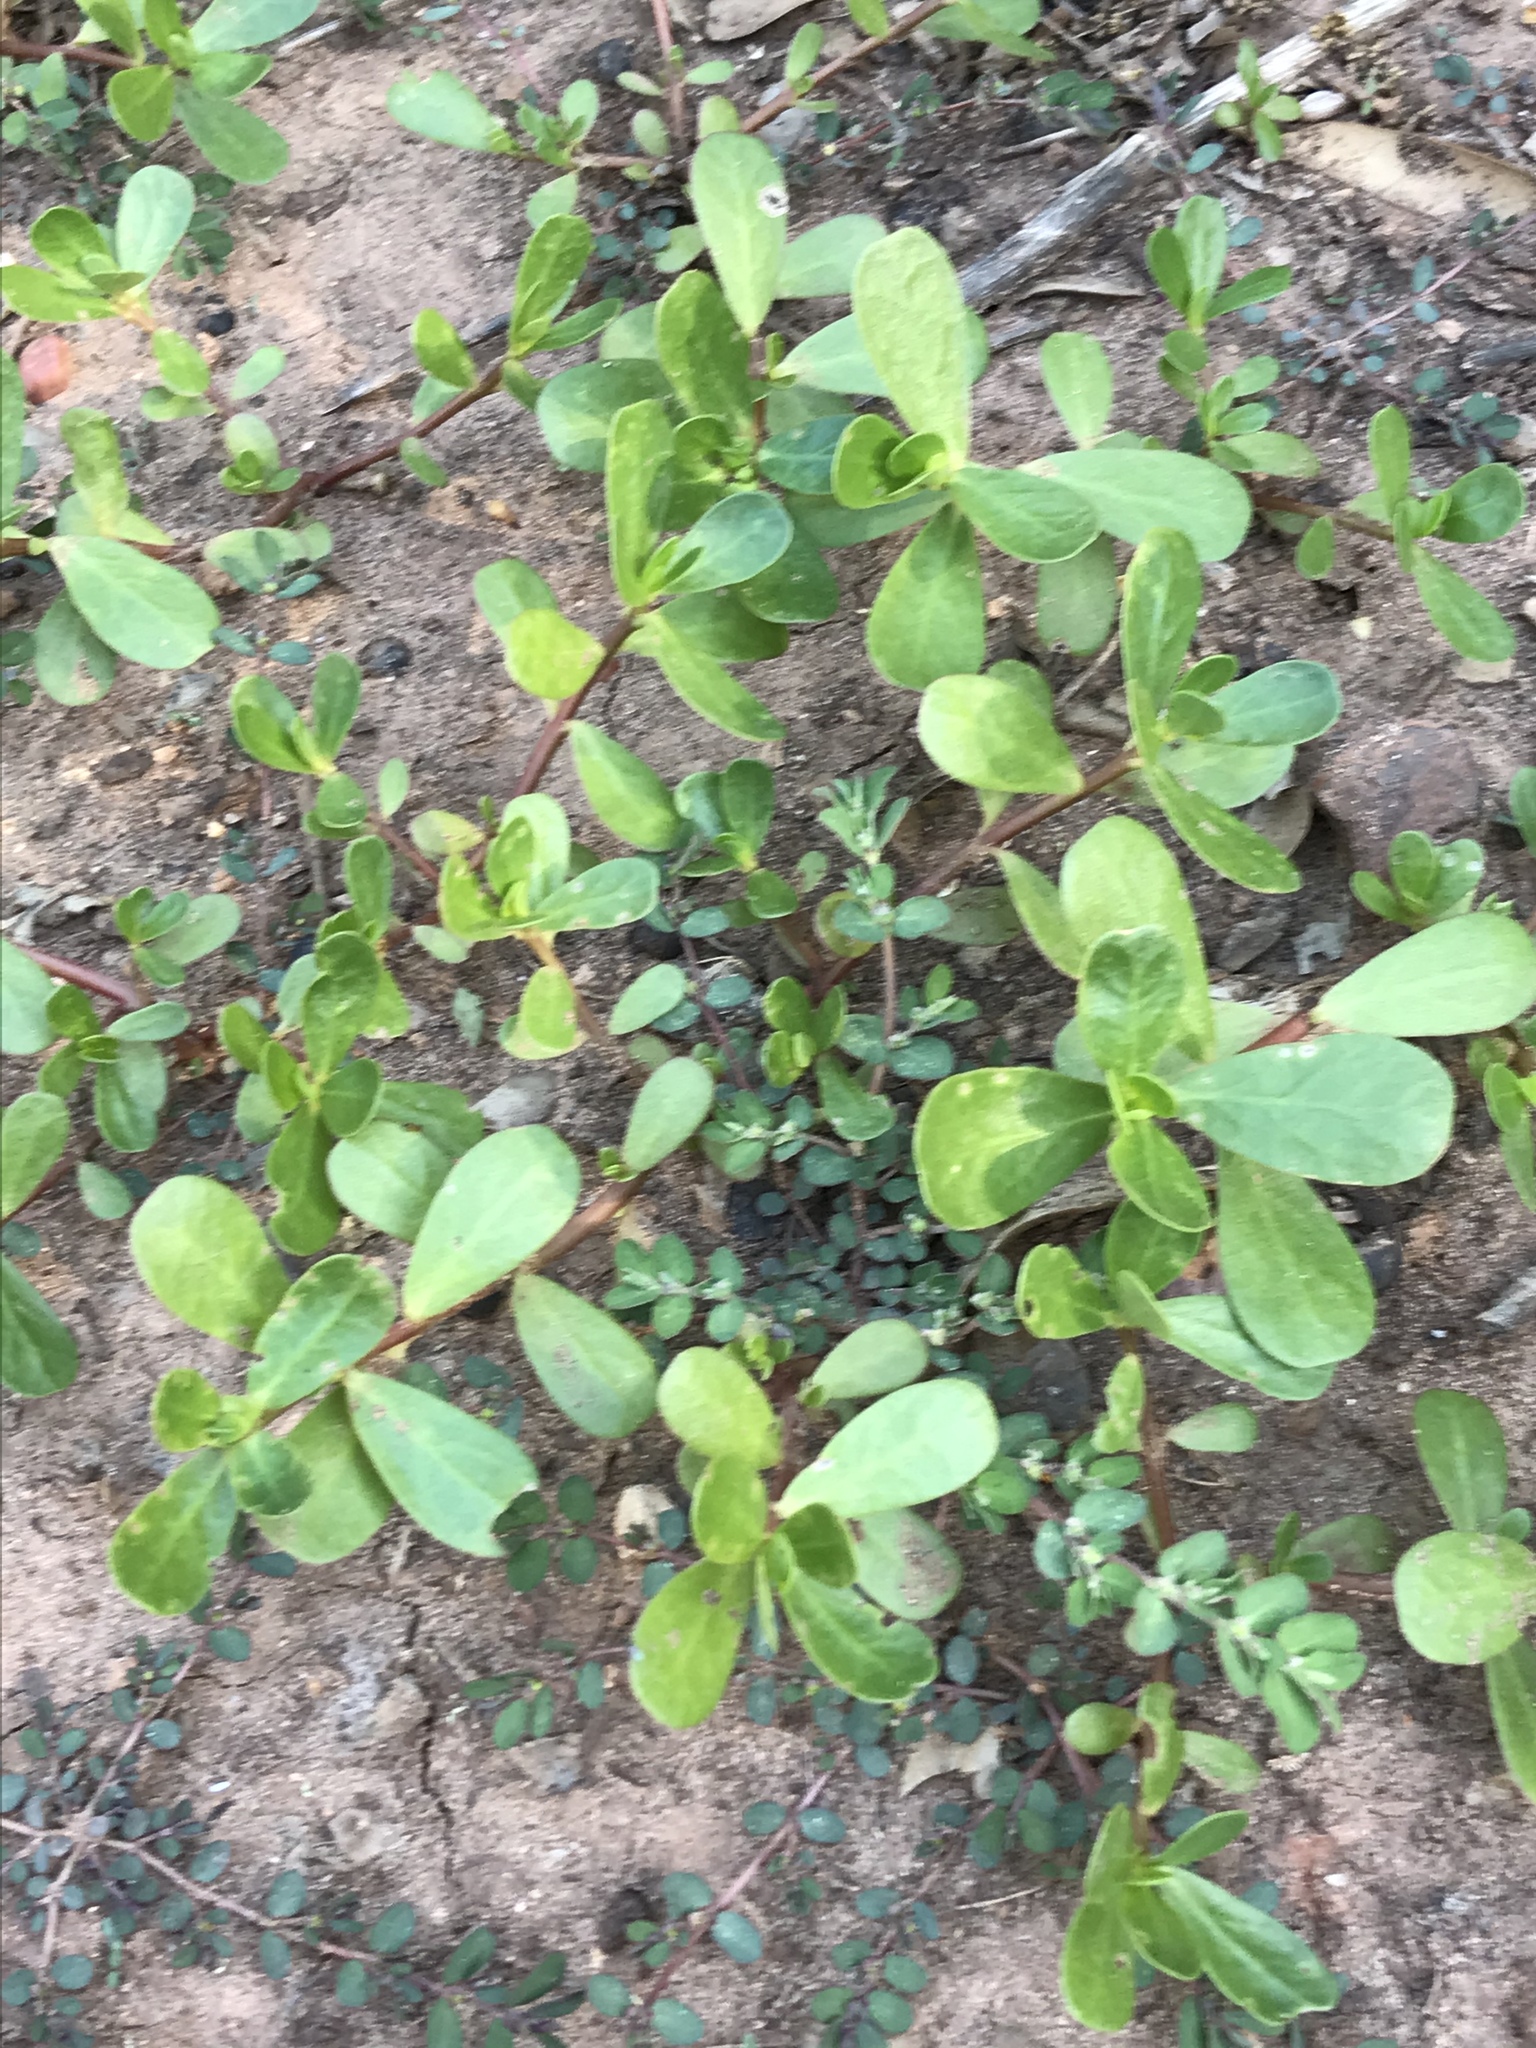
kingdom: Plantae
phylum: Tracheophyta
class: Magnoliopsida
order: Caryophyllales
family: Portulacaceae
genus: Portulaca
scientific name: Portulaca oleracea
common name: Common purslane
